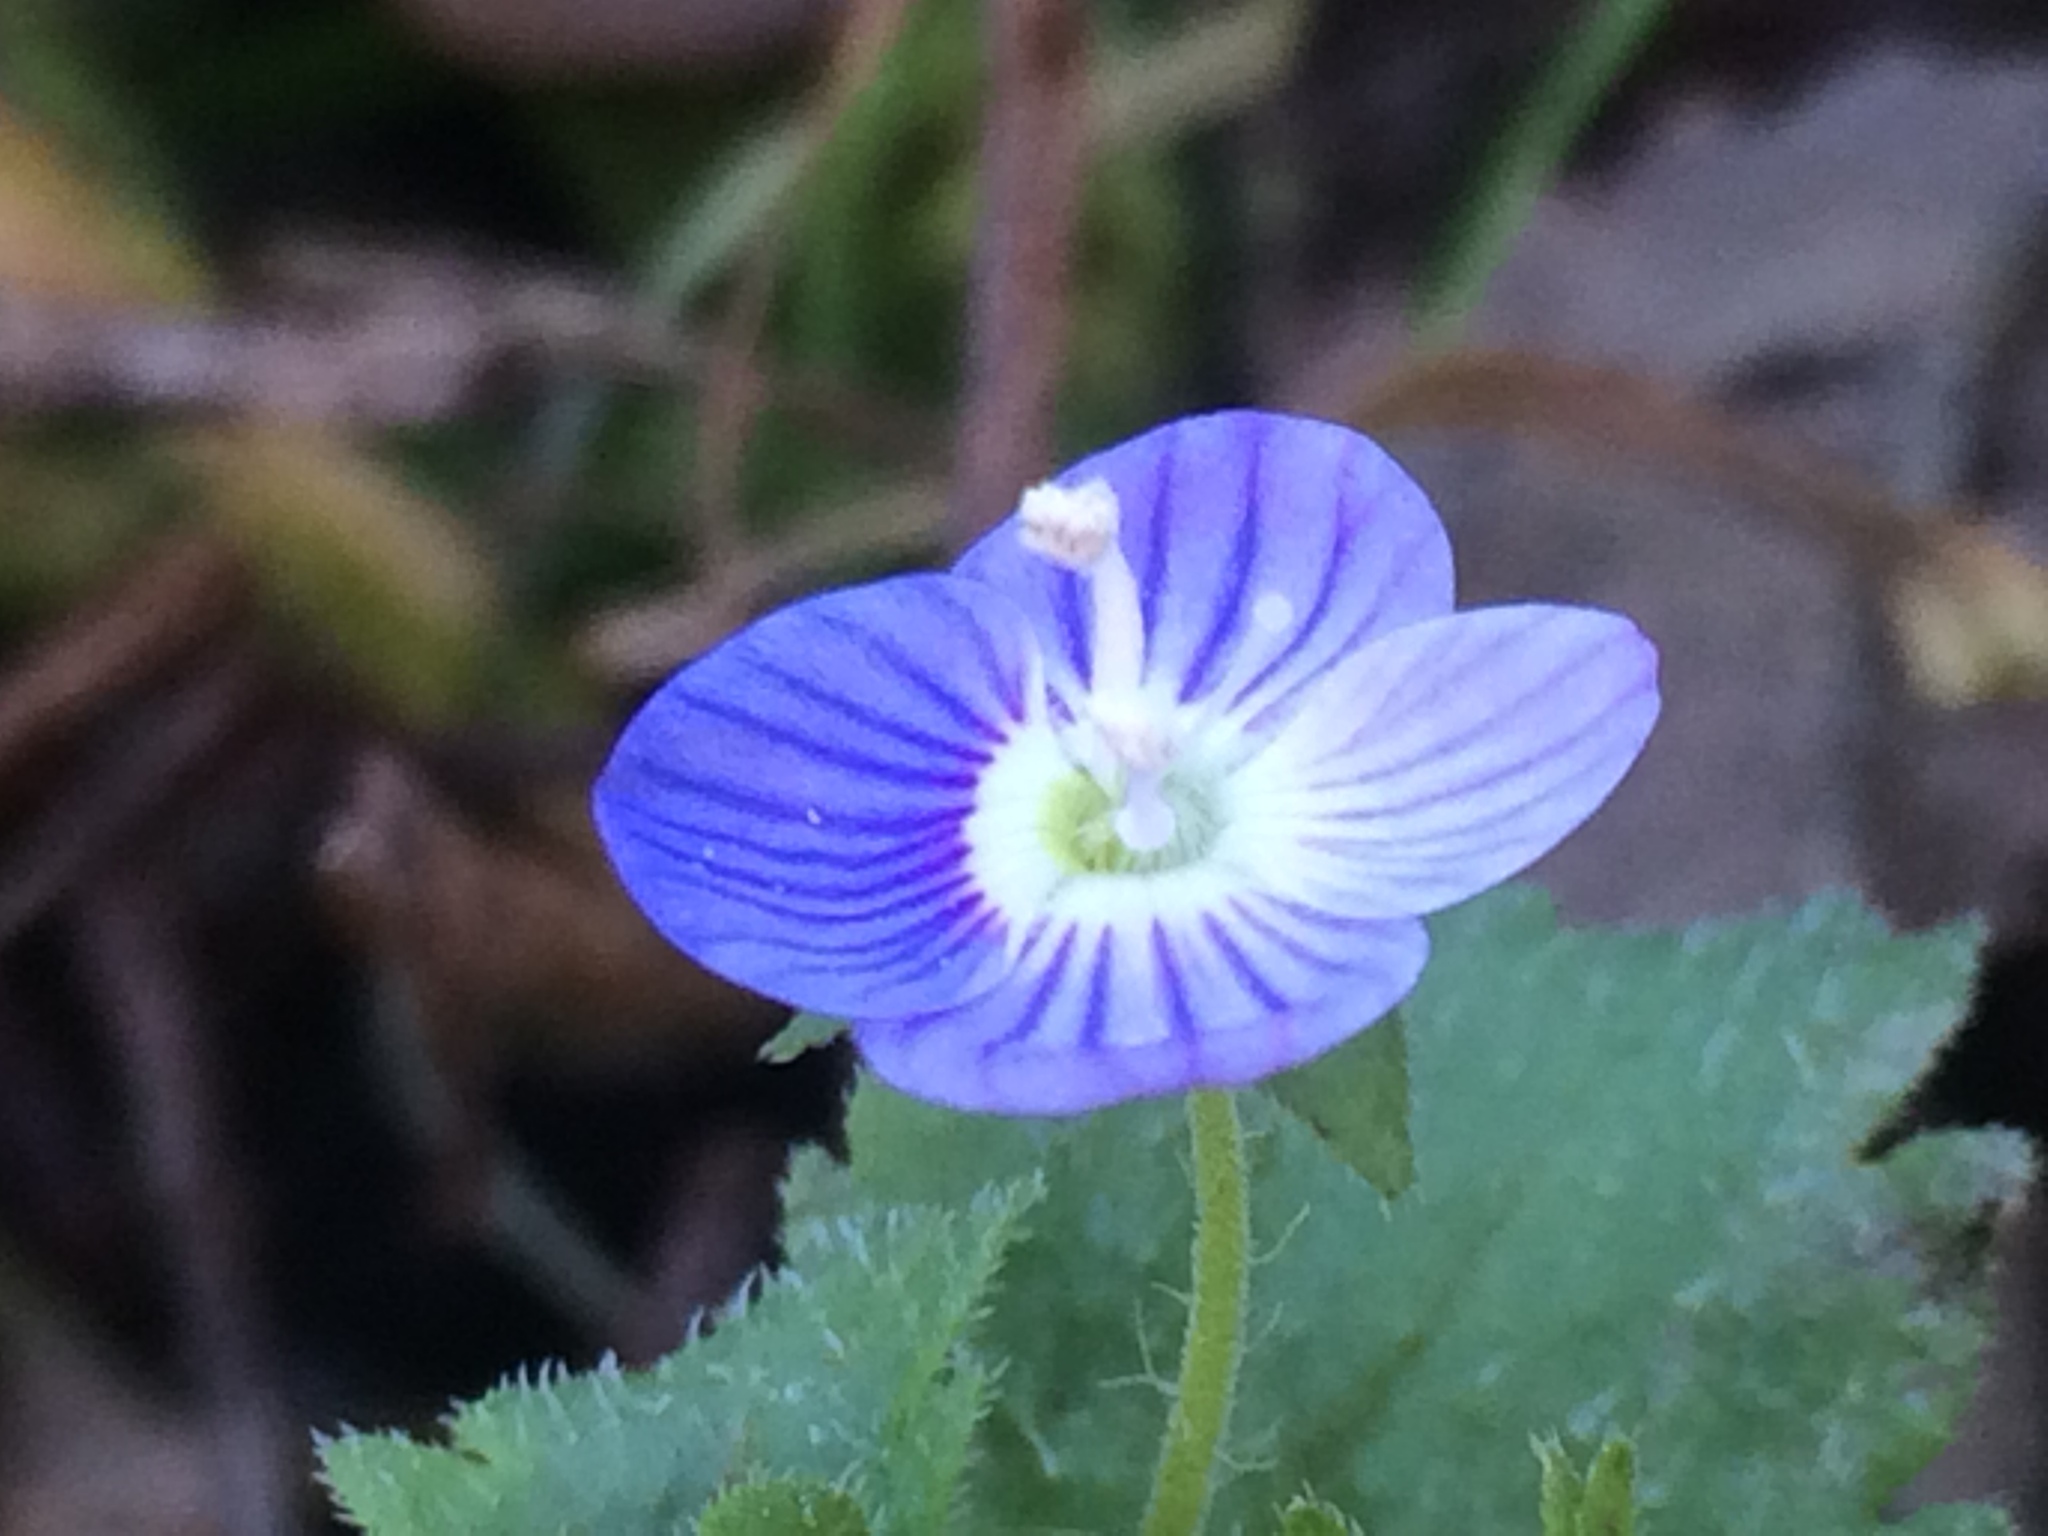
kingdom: Plantae
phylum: Tracheophyta
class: Magnoliopsida
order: Lamiales
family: Plantaginaceae
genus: Veronica
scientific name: Veronica persica
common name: Common field-speedwell
